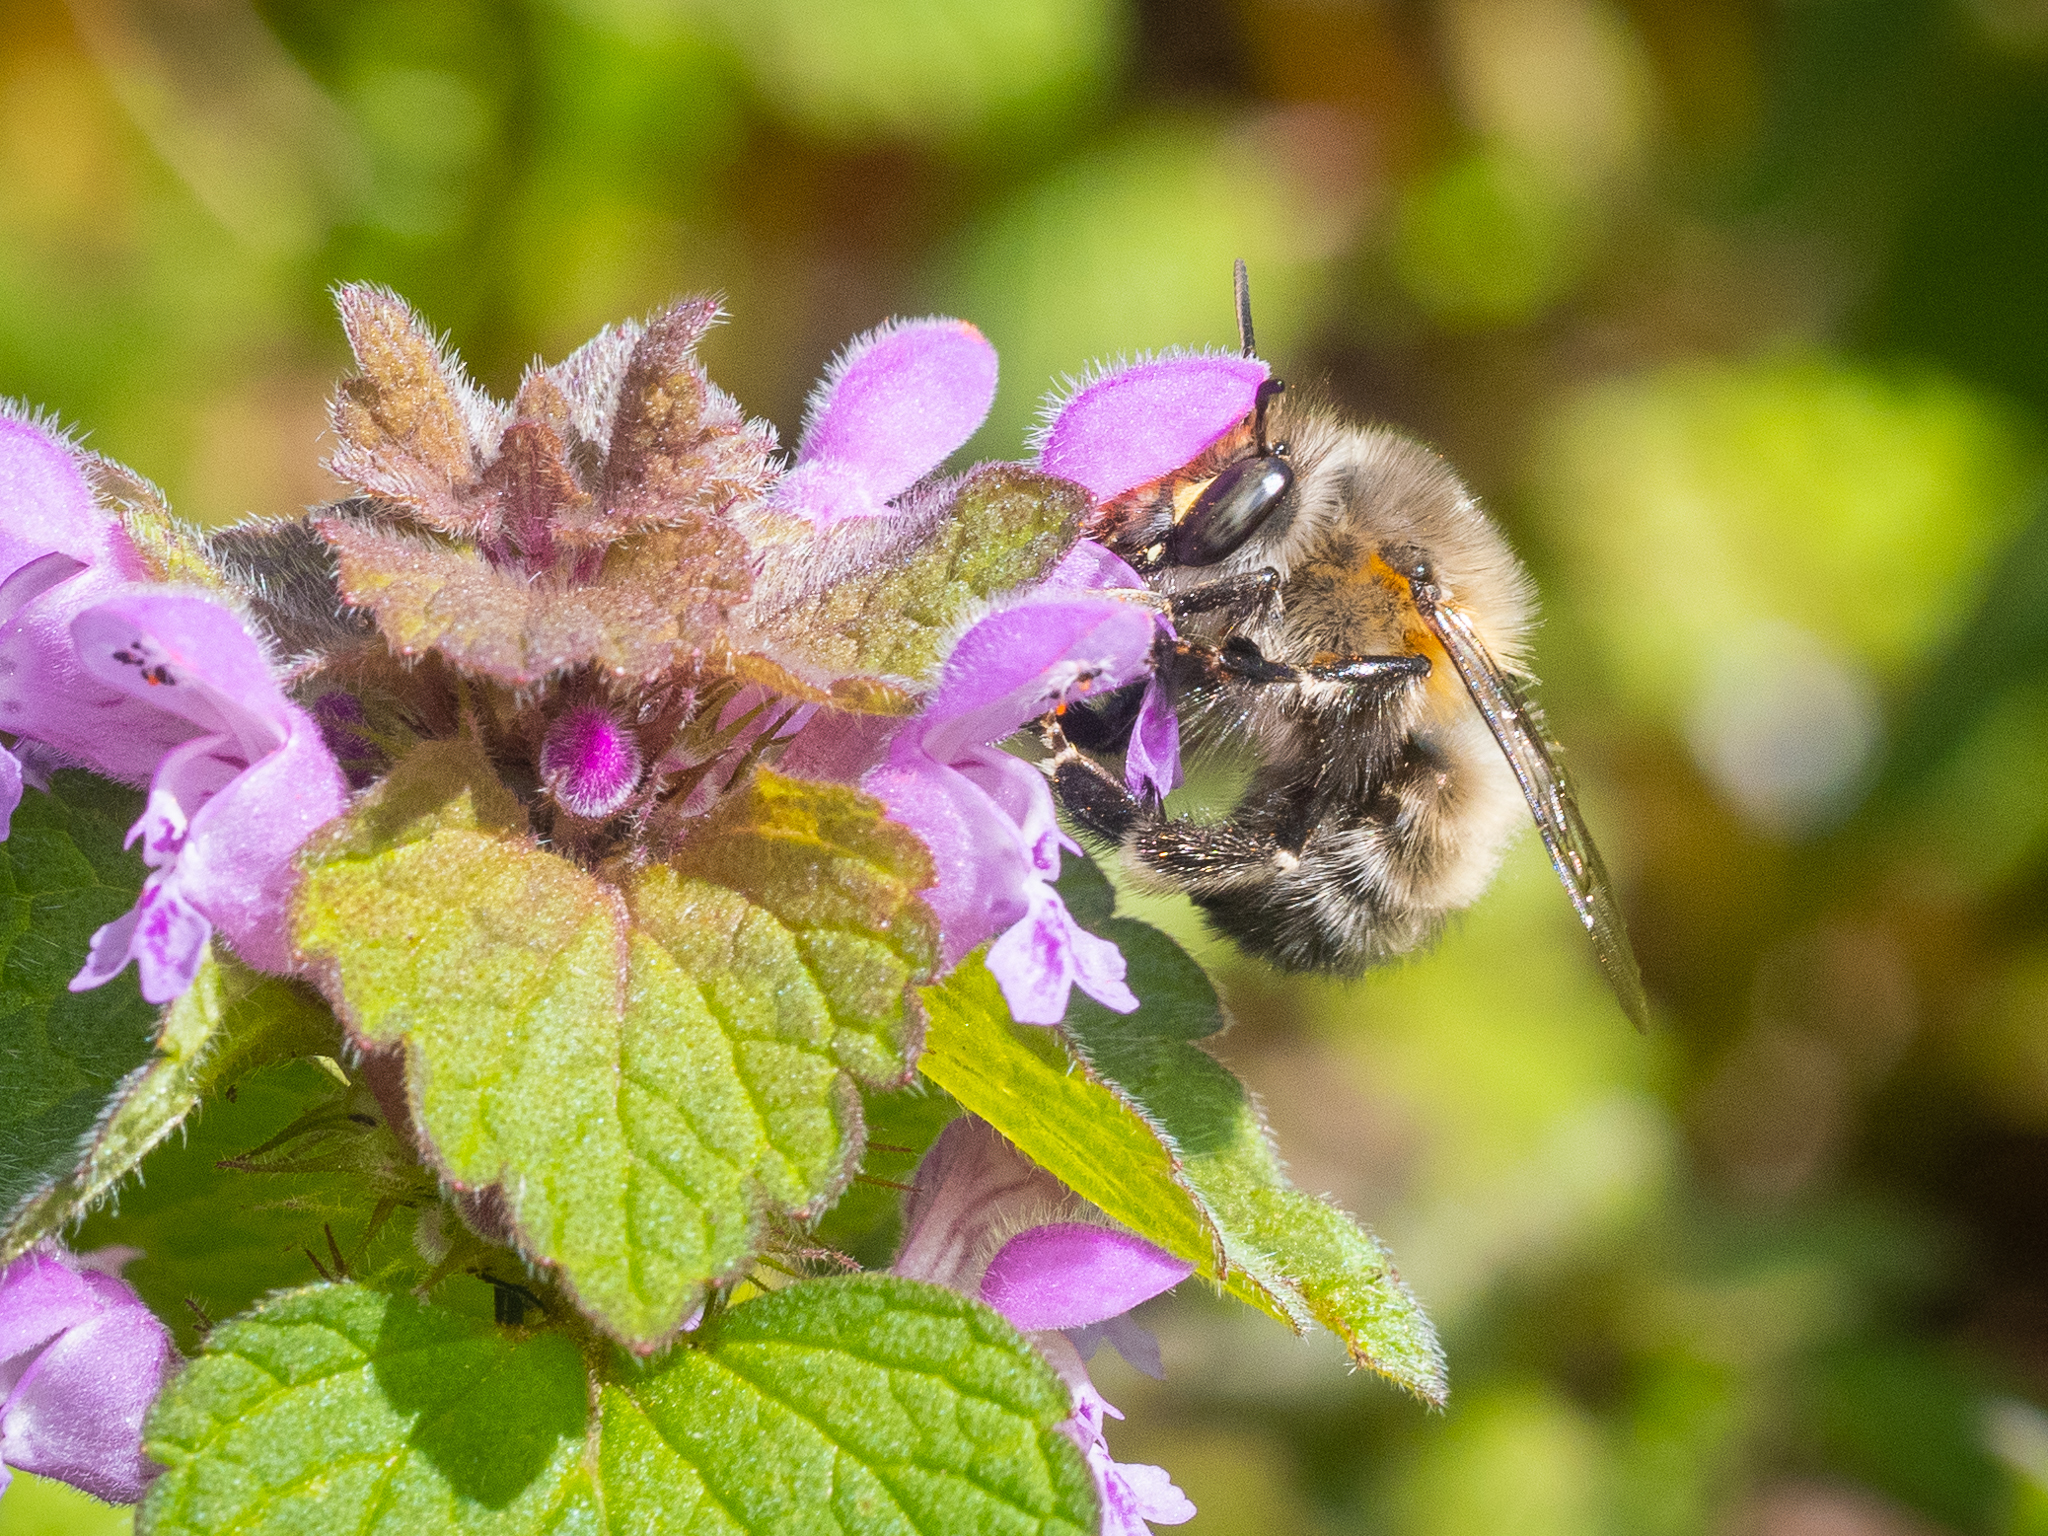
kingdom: Animalia
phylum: Arthropoda
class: Insecta
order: Hymenoptera
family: Apidae
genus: Anthophora
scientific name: Anthophora plumipes
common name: Hairy-footed flower bee
